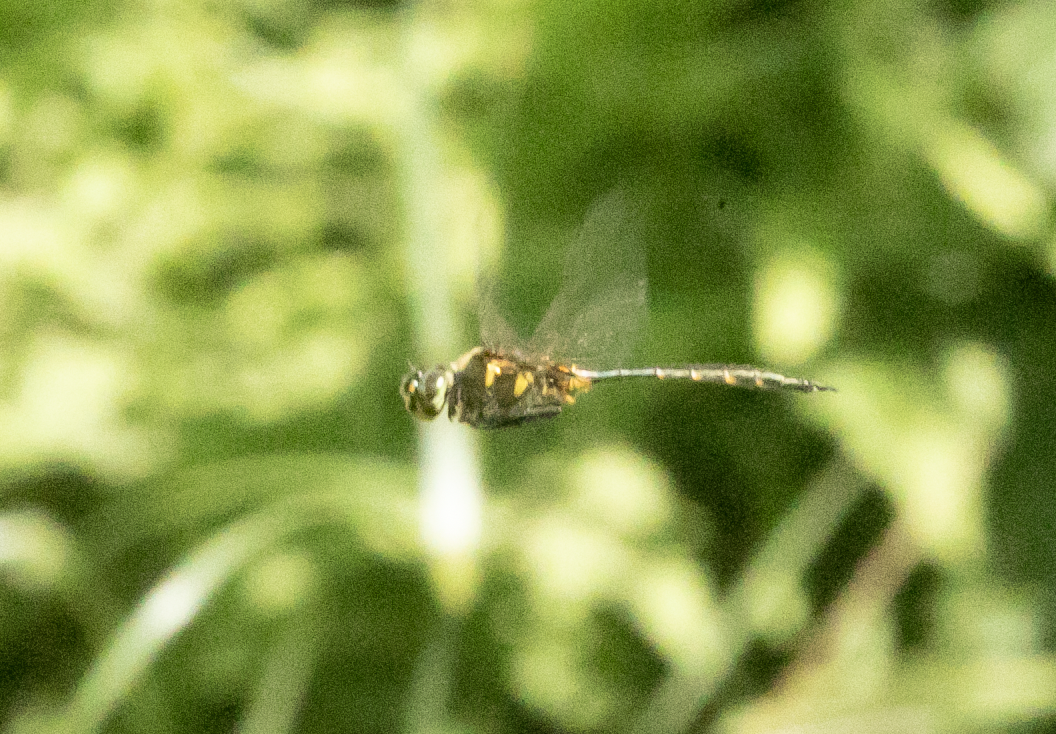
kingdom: Animalia
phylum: Arthropoda
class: Insecta
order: Odonata
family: Corduliidae
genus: Somatochlora
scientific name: Somatochlora flavomaculata
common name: Yellow-spotted emerald
